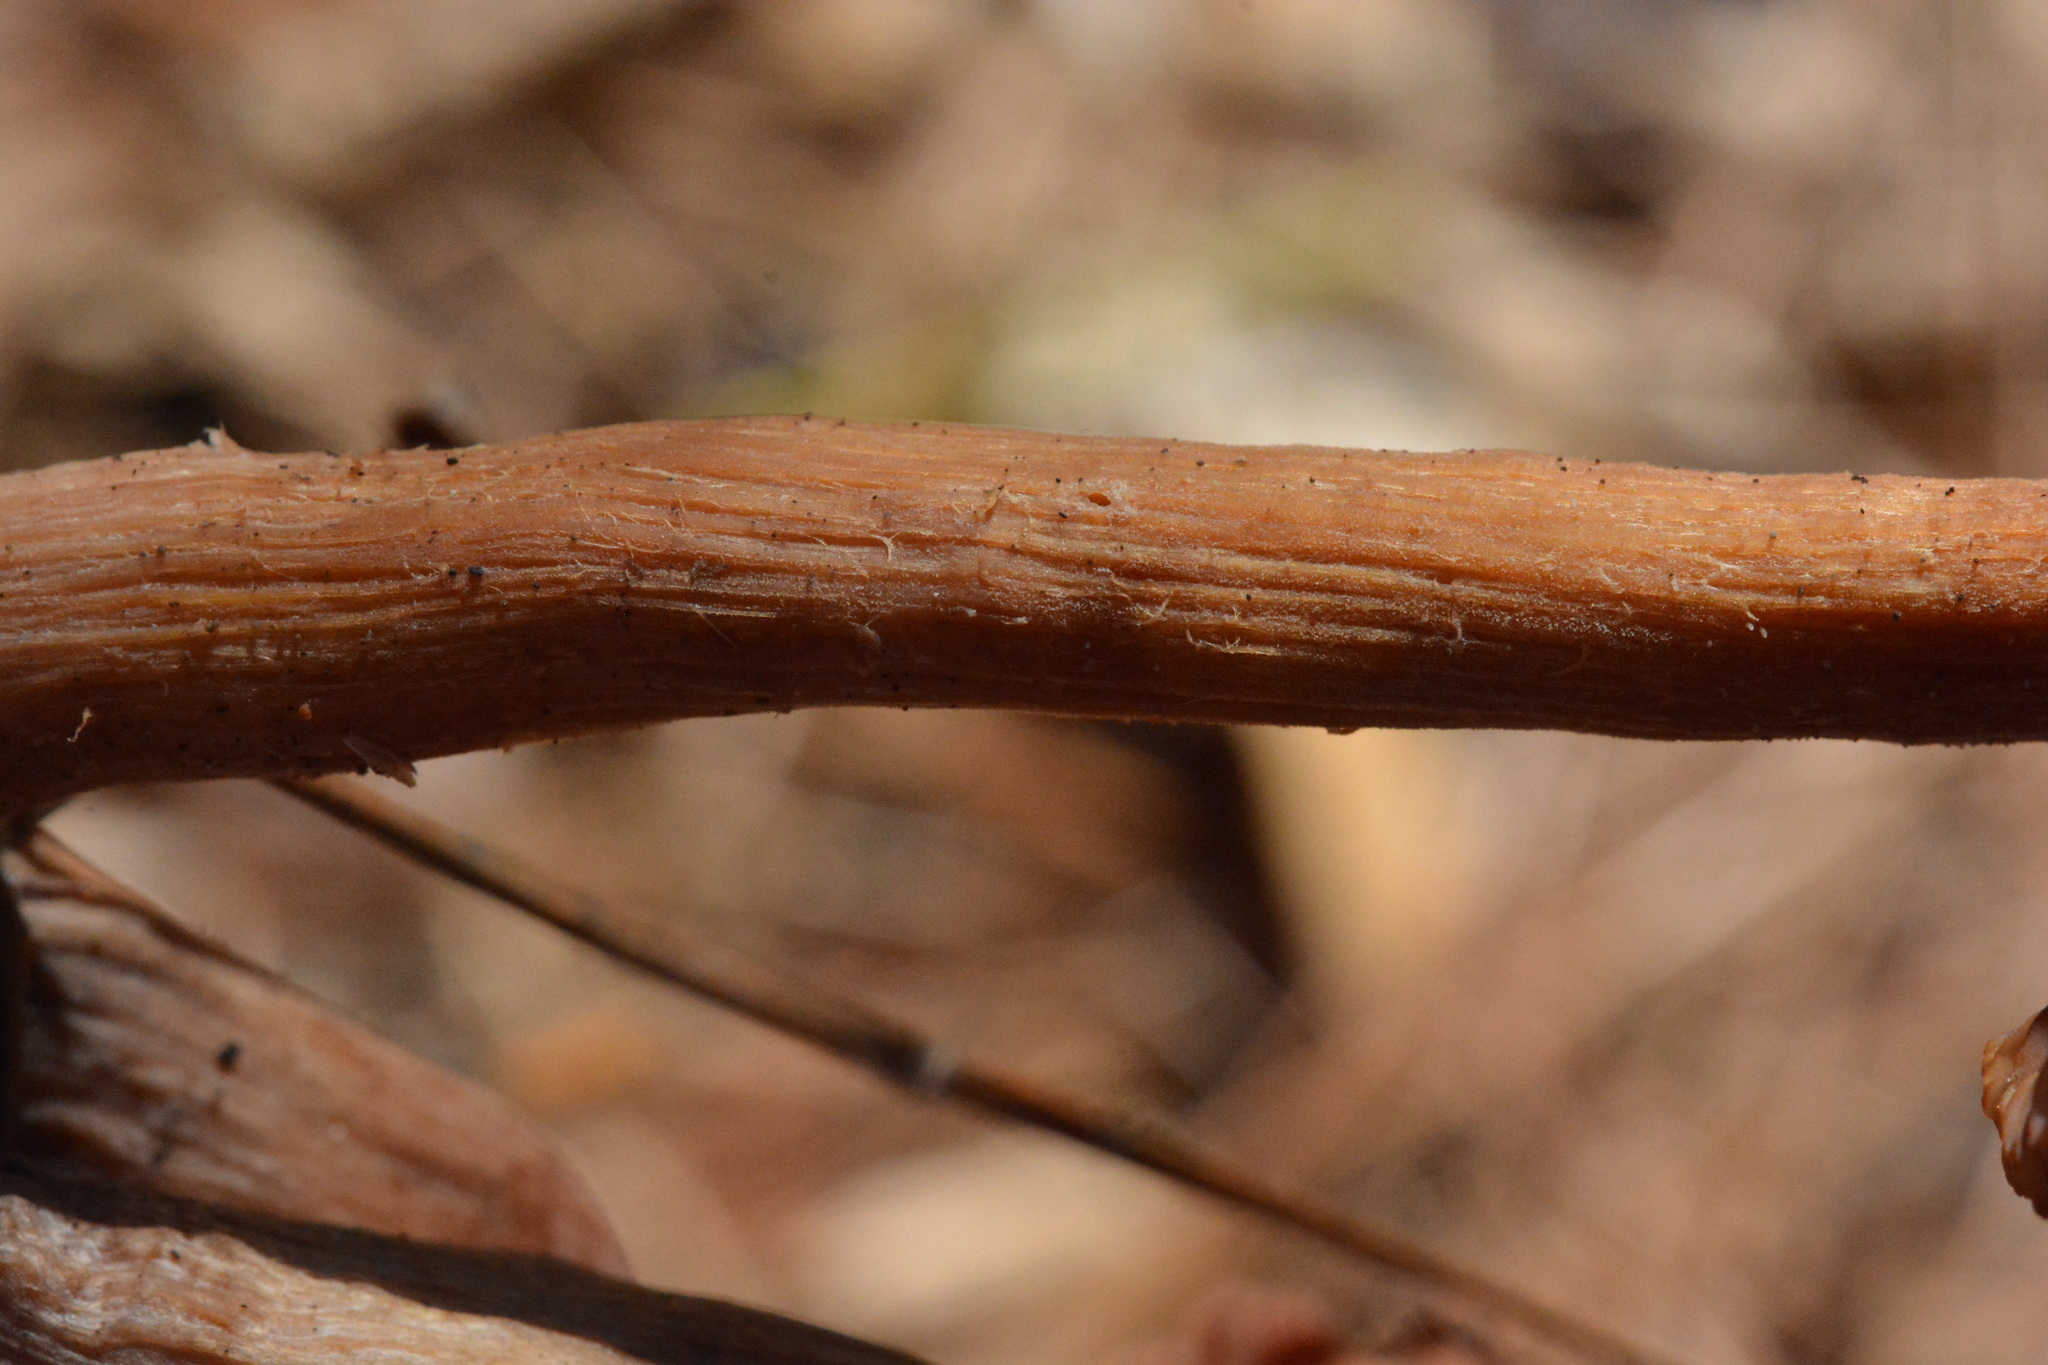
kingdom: Fungi
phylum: Basidiomycota
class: Agaricomycetes
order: Agaricales
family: Hydnangiaceae
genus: Laccaria
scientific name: Laccaria laccata
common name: Deceiver
